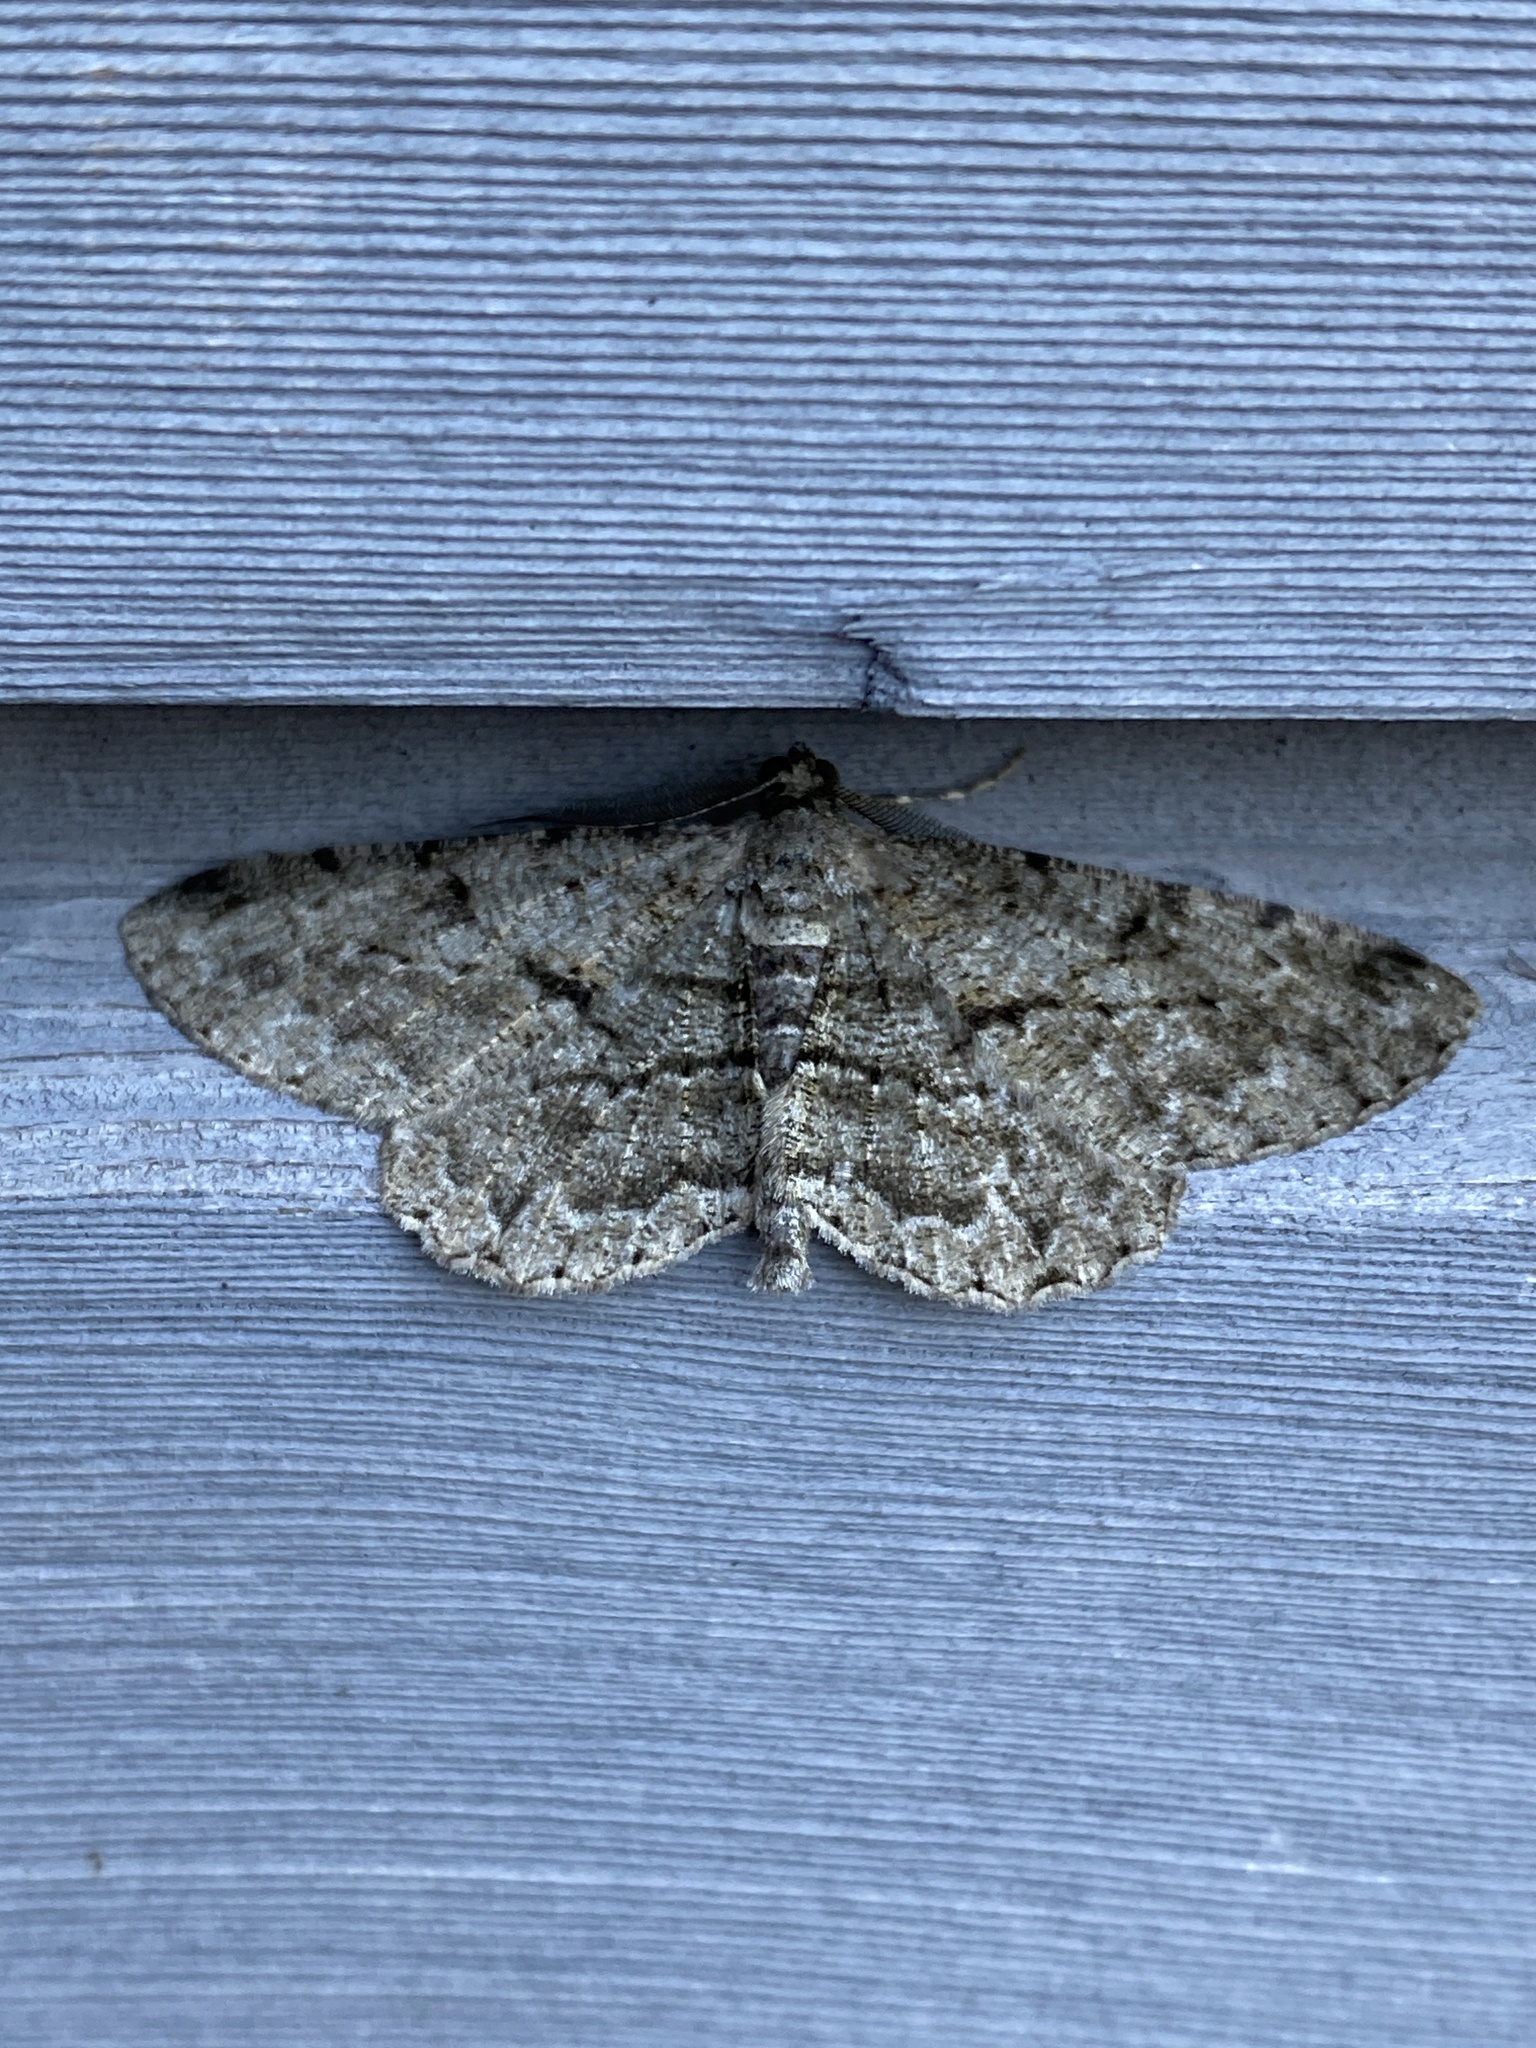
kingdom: Animalia
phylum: Arthropoda
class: Insecta
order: Lepidoptera
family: Geometridae
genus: Peribatodes
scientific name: Peribatodes rhomboidaria
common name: Willow beauty
